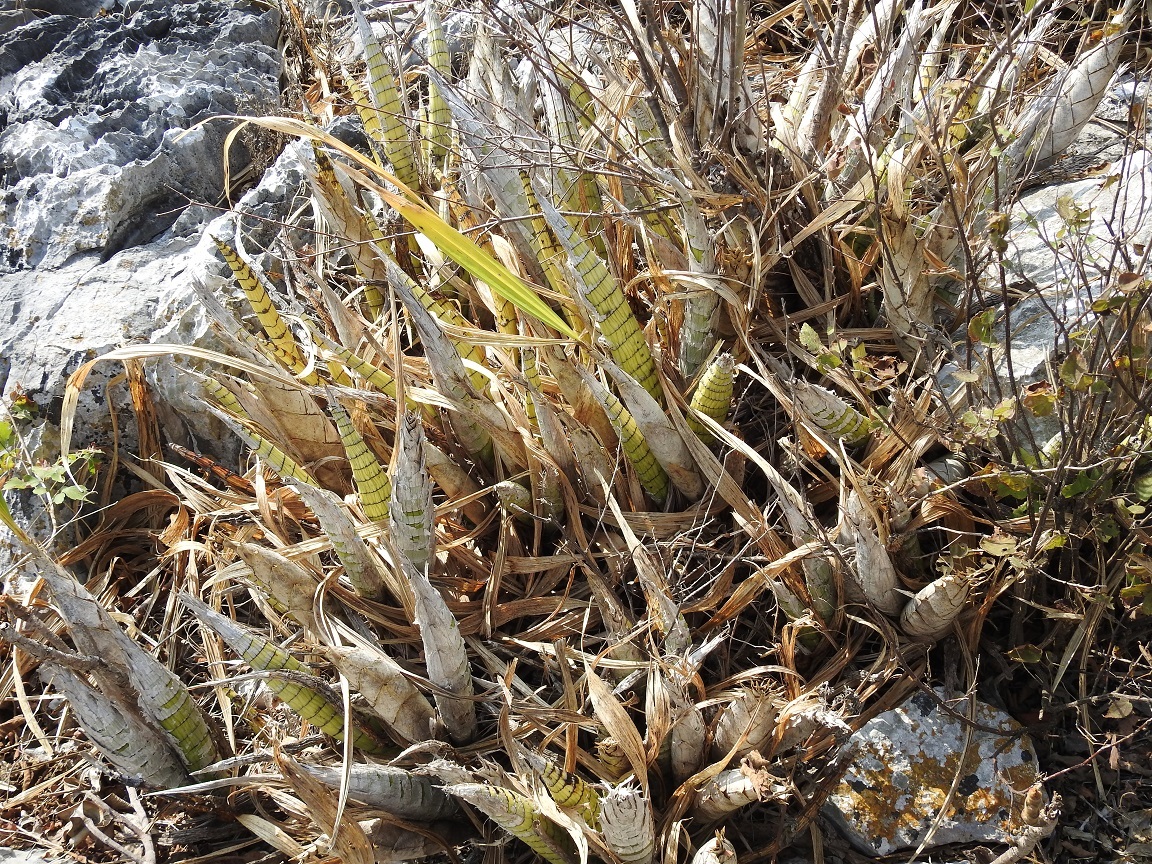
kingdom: Plantae
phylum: Tracheophyta
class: Liliopsida
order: Asparagales
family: Orchidaceae
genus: Cyrtopodium
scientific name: Cyrtopodium macrobulbon
